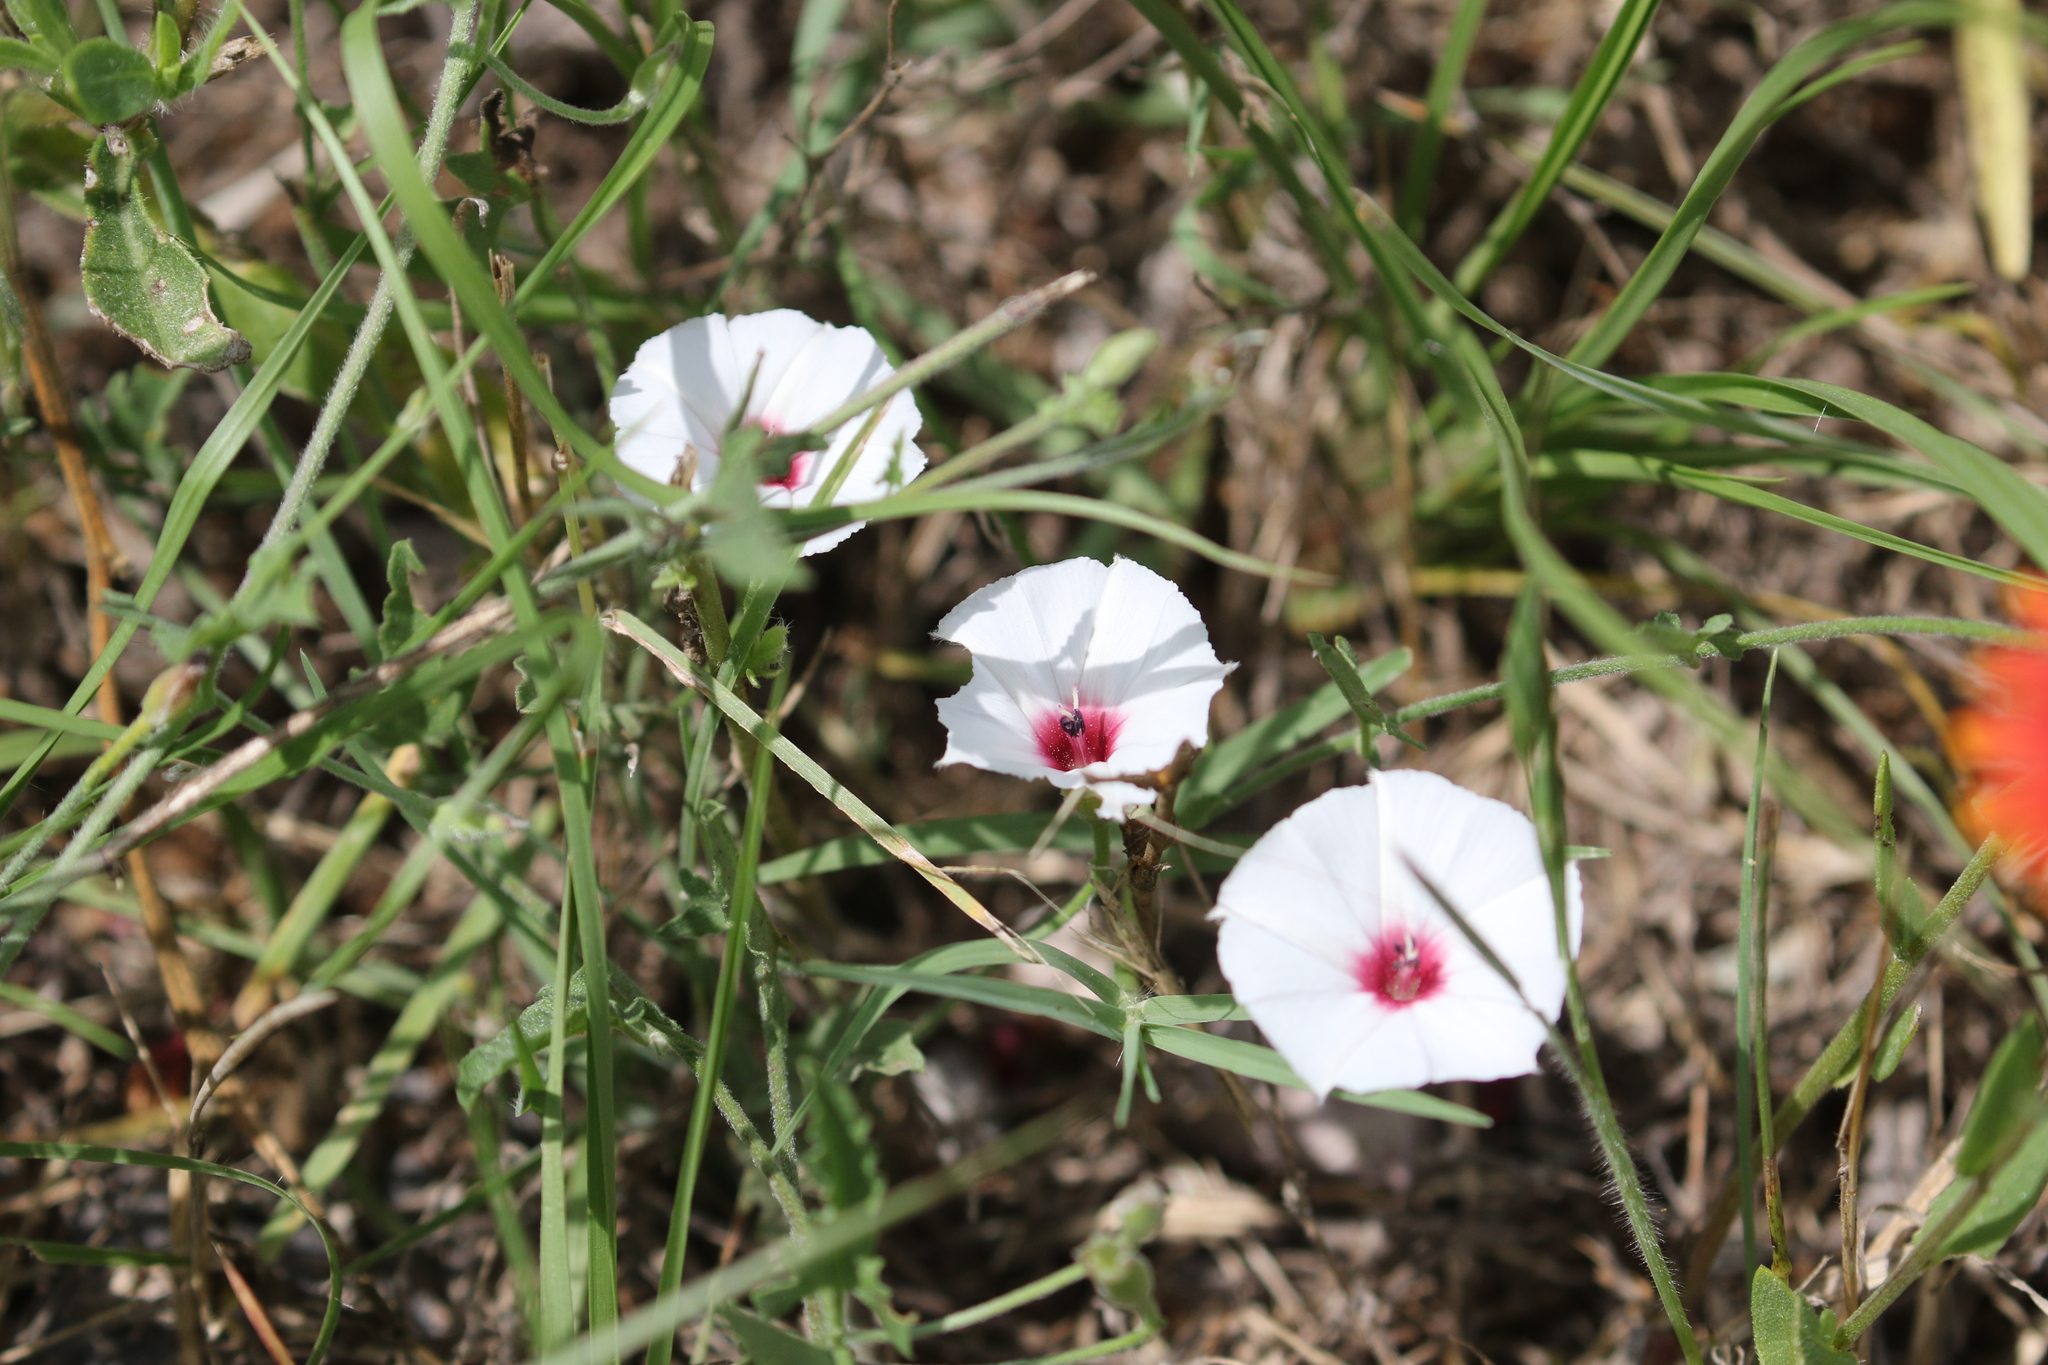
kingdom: Plantae
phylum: Tracheophyta
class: Magnoliopsida
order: Solanales
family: Convolvulaceae
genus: Convolvulus
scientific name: Convolvulus equitans
